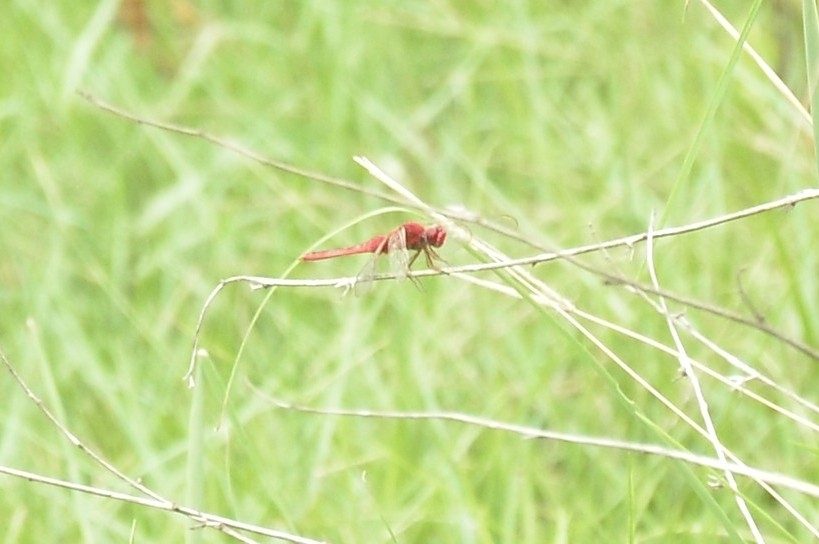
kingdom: Animalia
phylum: Arthropoda
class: Insecta
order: Odonata
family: Libellulidae
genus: Urothemis
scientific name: Urothemis signata
